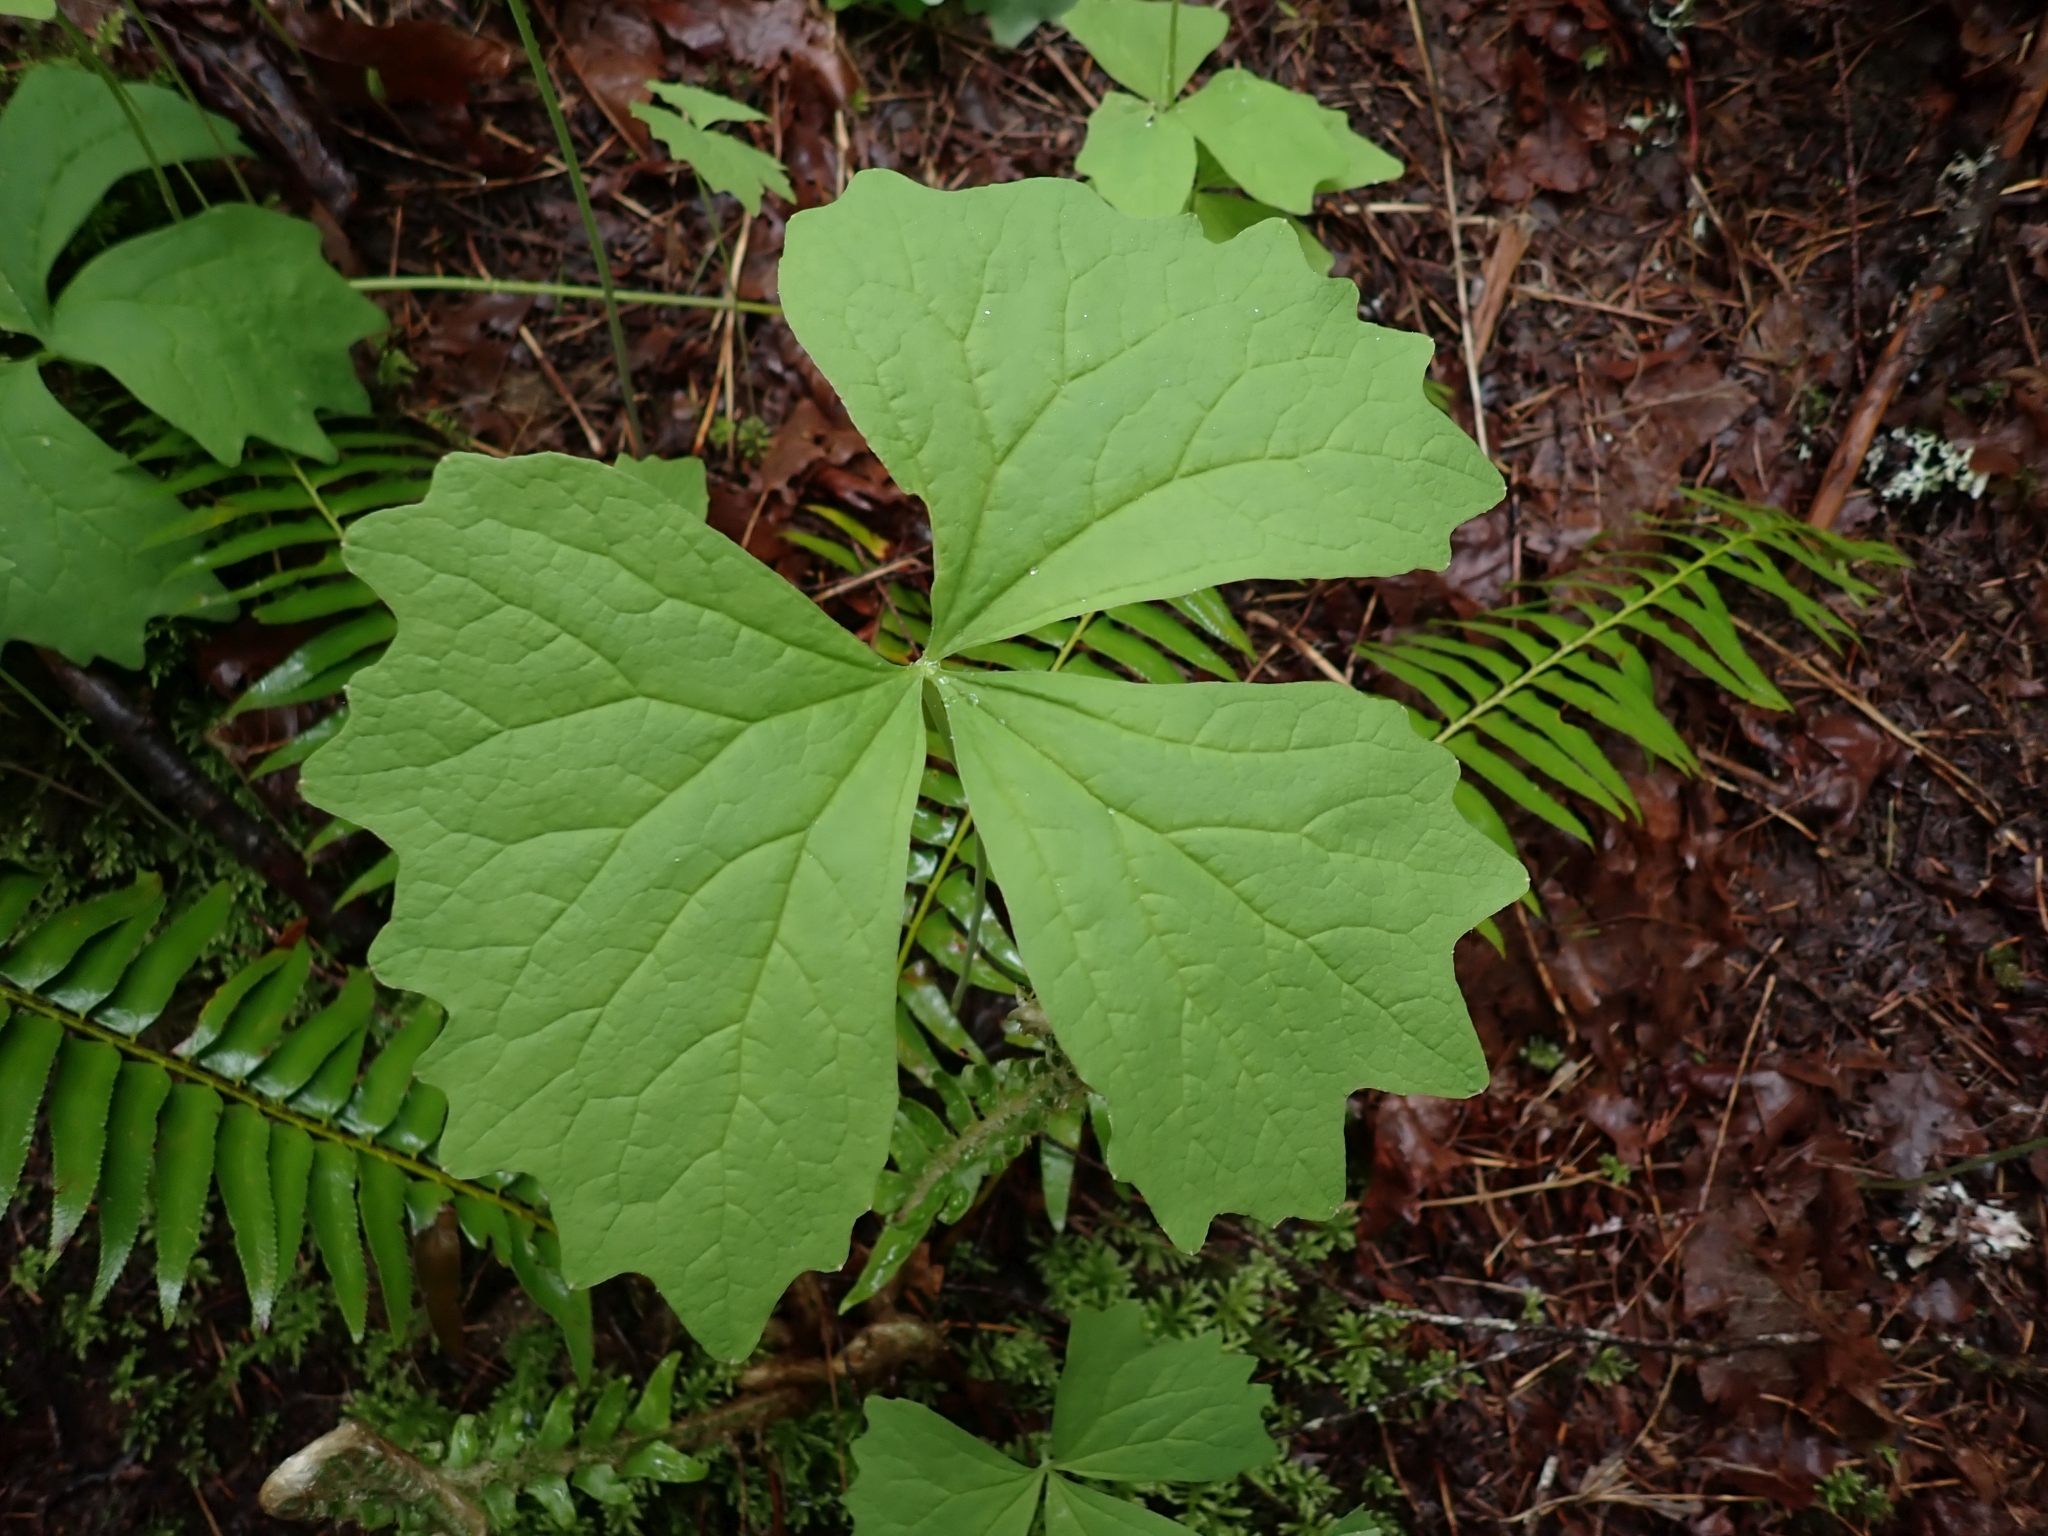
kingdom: Plantae
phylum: Tracheophyta
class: Magnoliopsida
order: Ranunculales
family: Berberidaceae
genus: Achlys
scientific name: Achlys triphylla
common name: Vanilla-leaf
